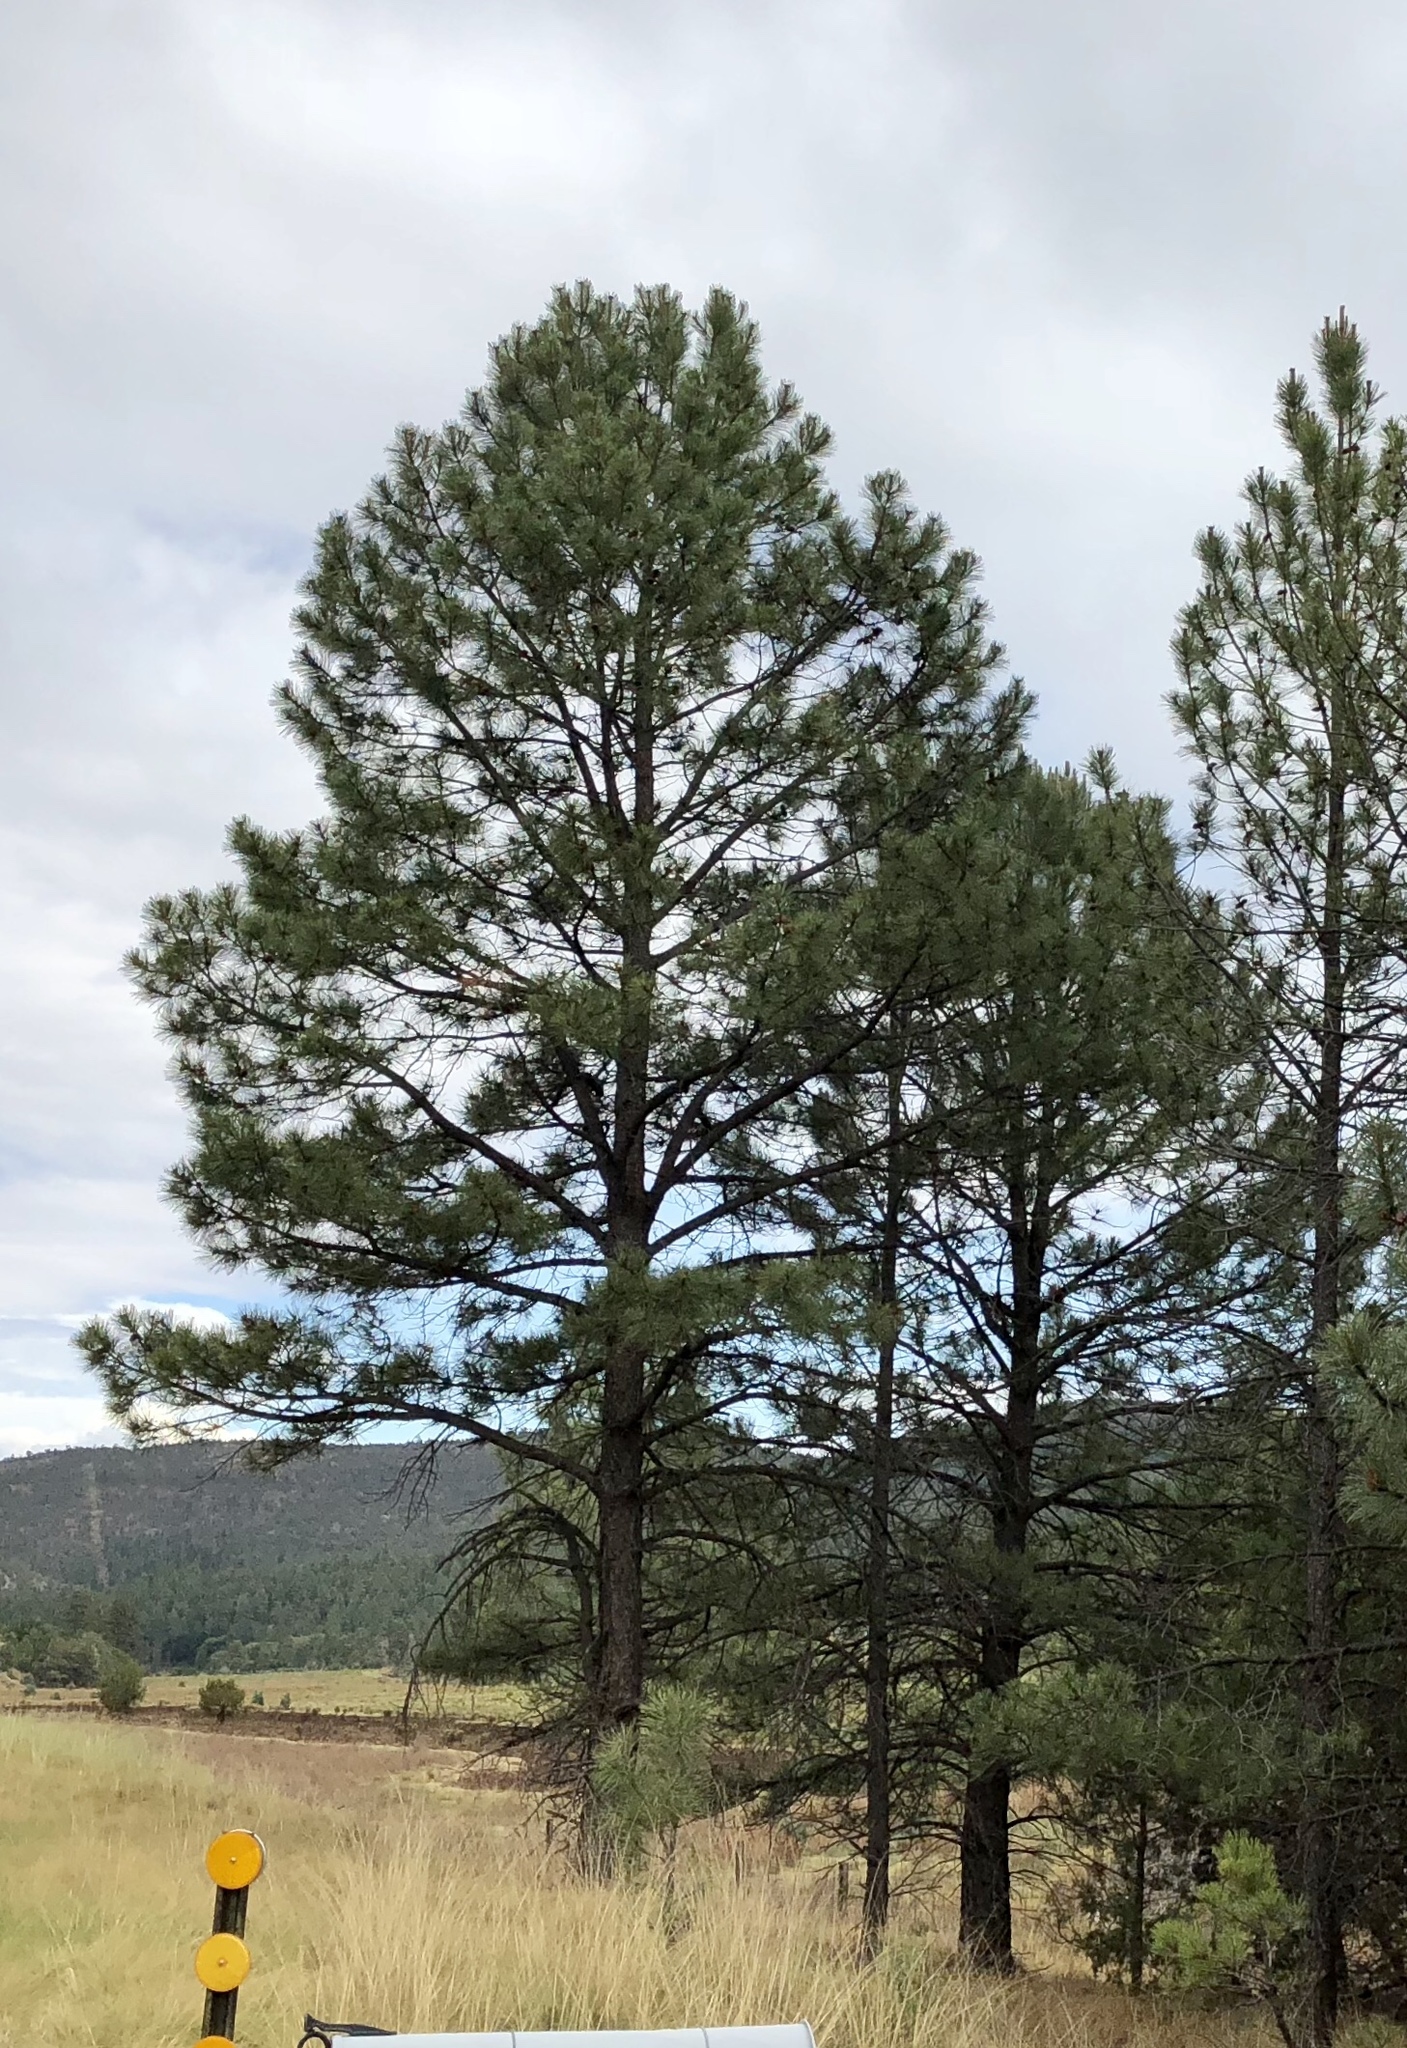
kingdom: Plantae
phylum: Tracheophyta
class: Pinopsida
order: Pinales
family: Pinaceae
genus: Pinus
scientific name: Pinus ponderosa
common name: Western yellow-pine
